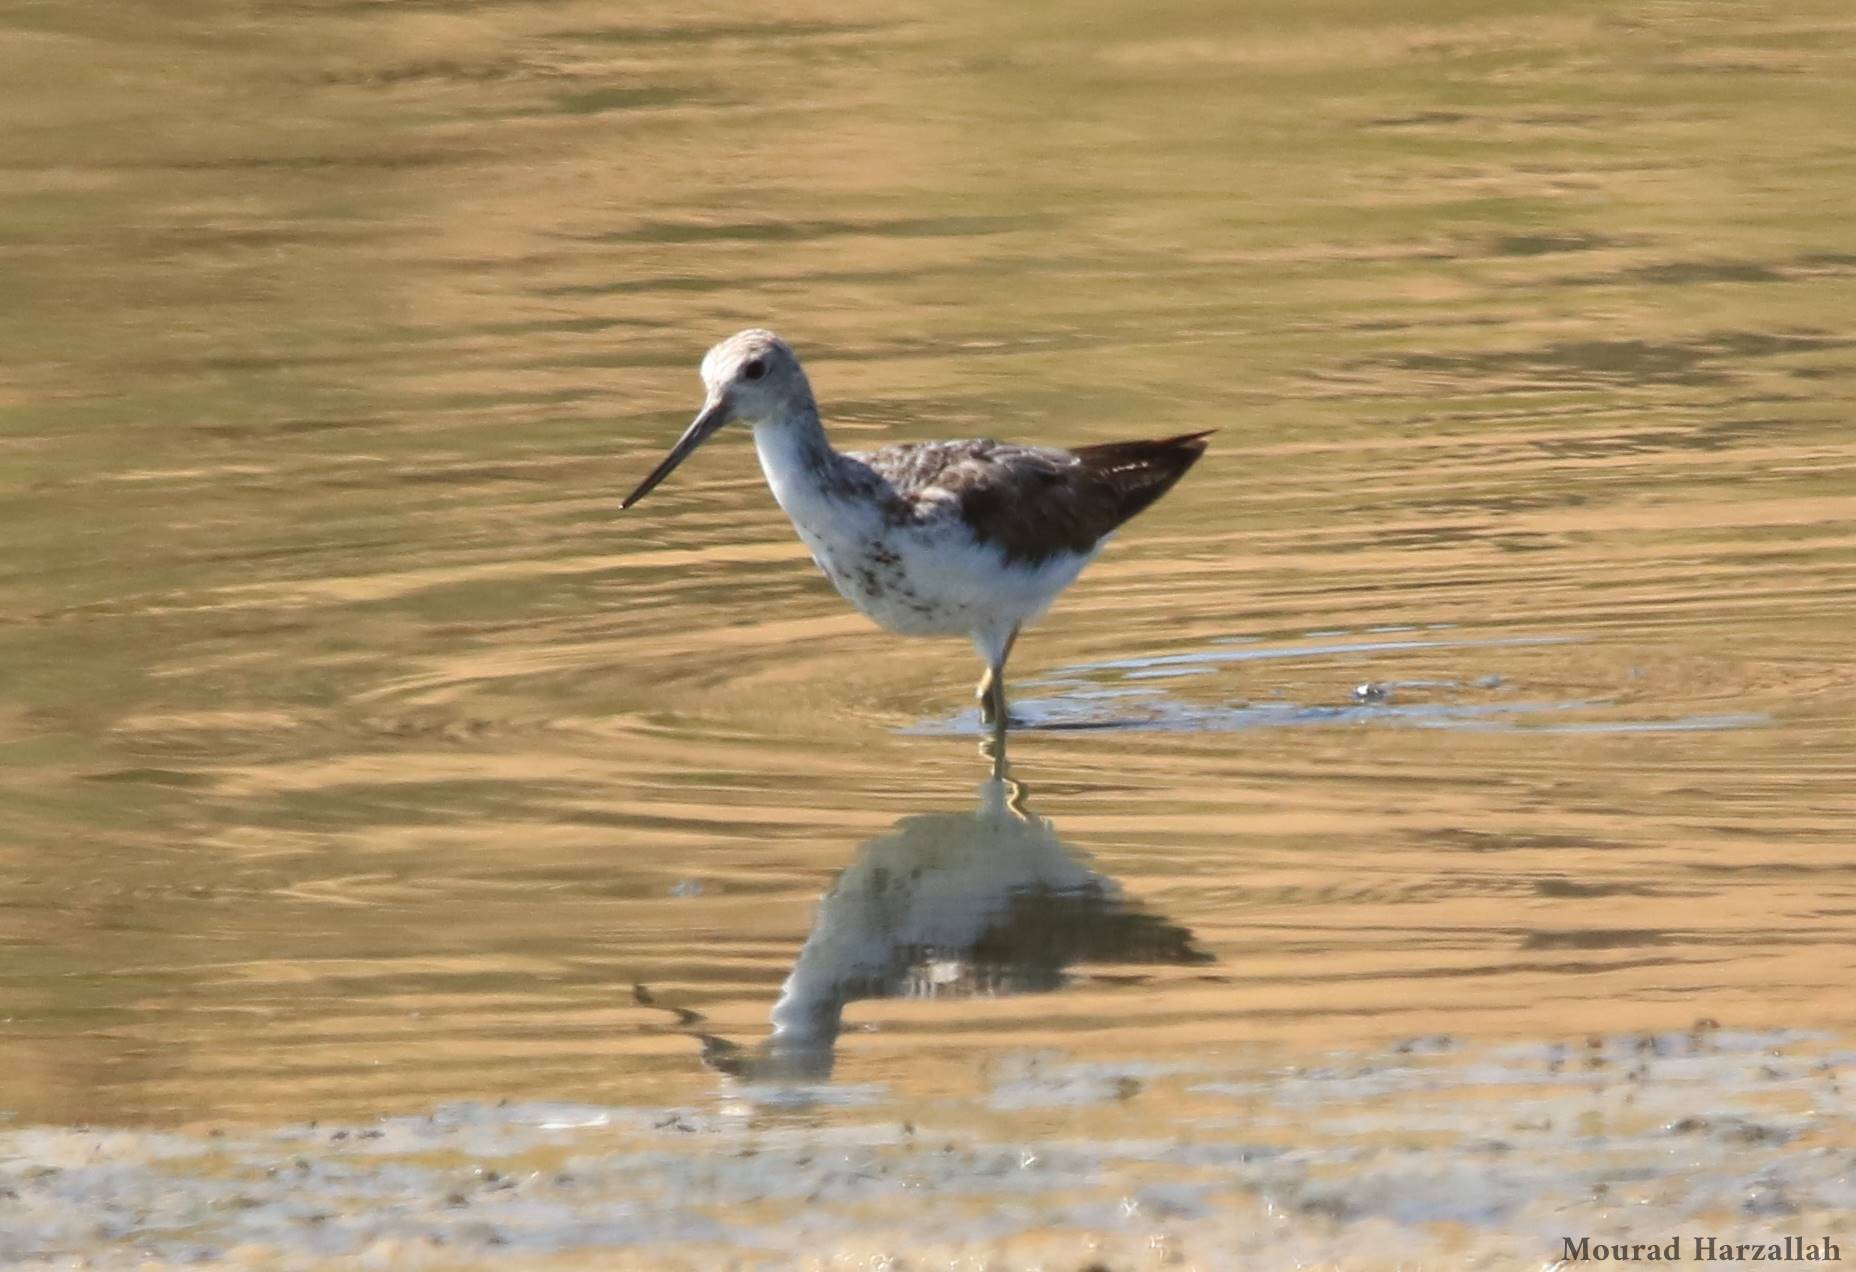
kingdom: Animalia
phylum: Chordata
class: Aves
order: Charadriiformes
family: Scolopacidae
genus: Tringa
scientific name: Tringa nebularia
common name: Common greenshank
